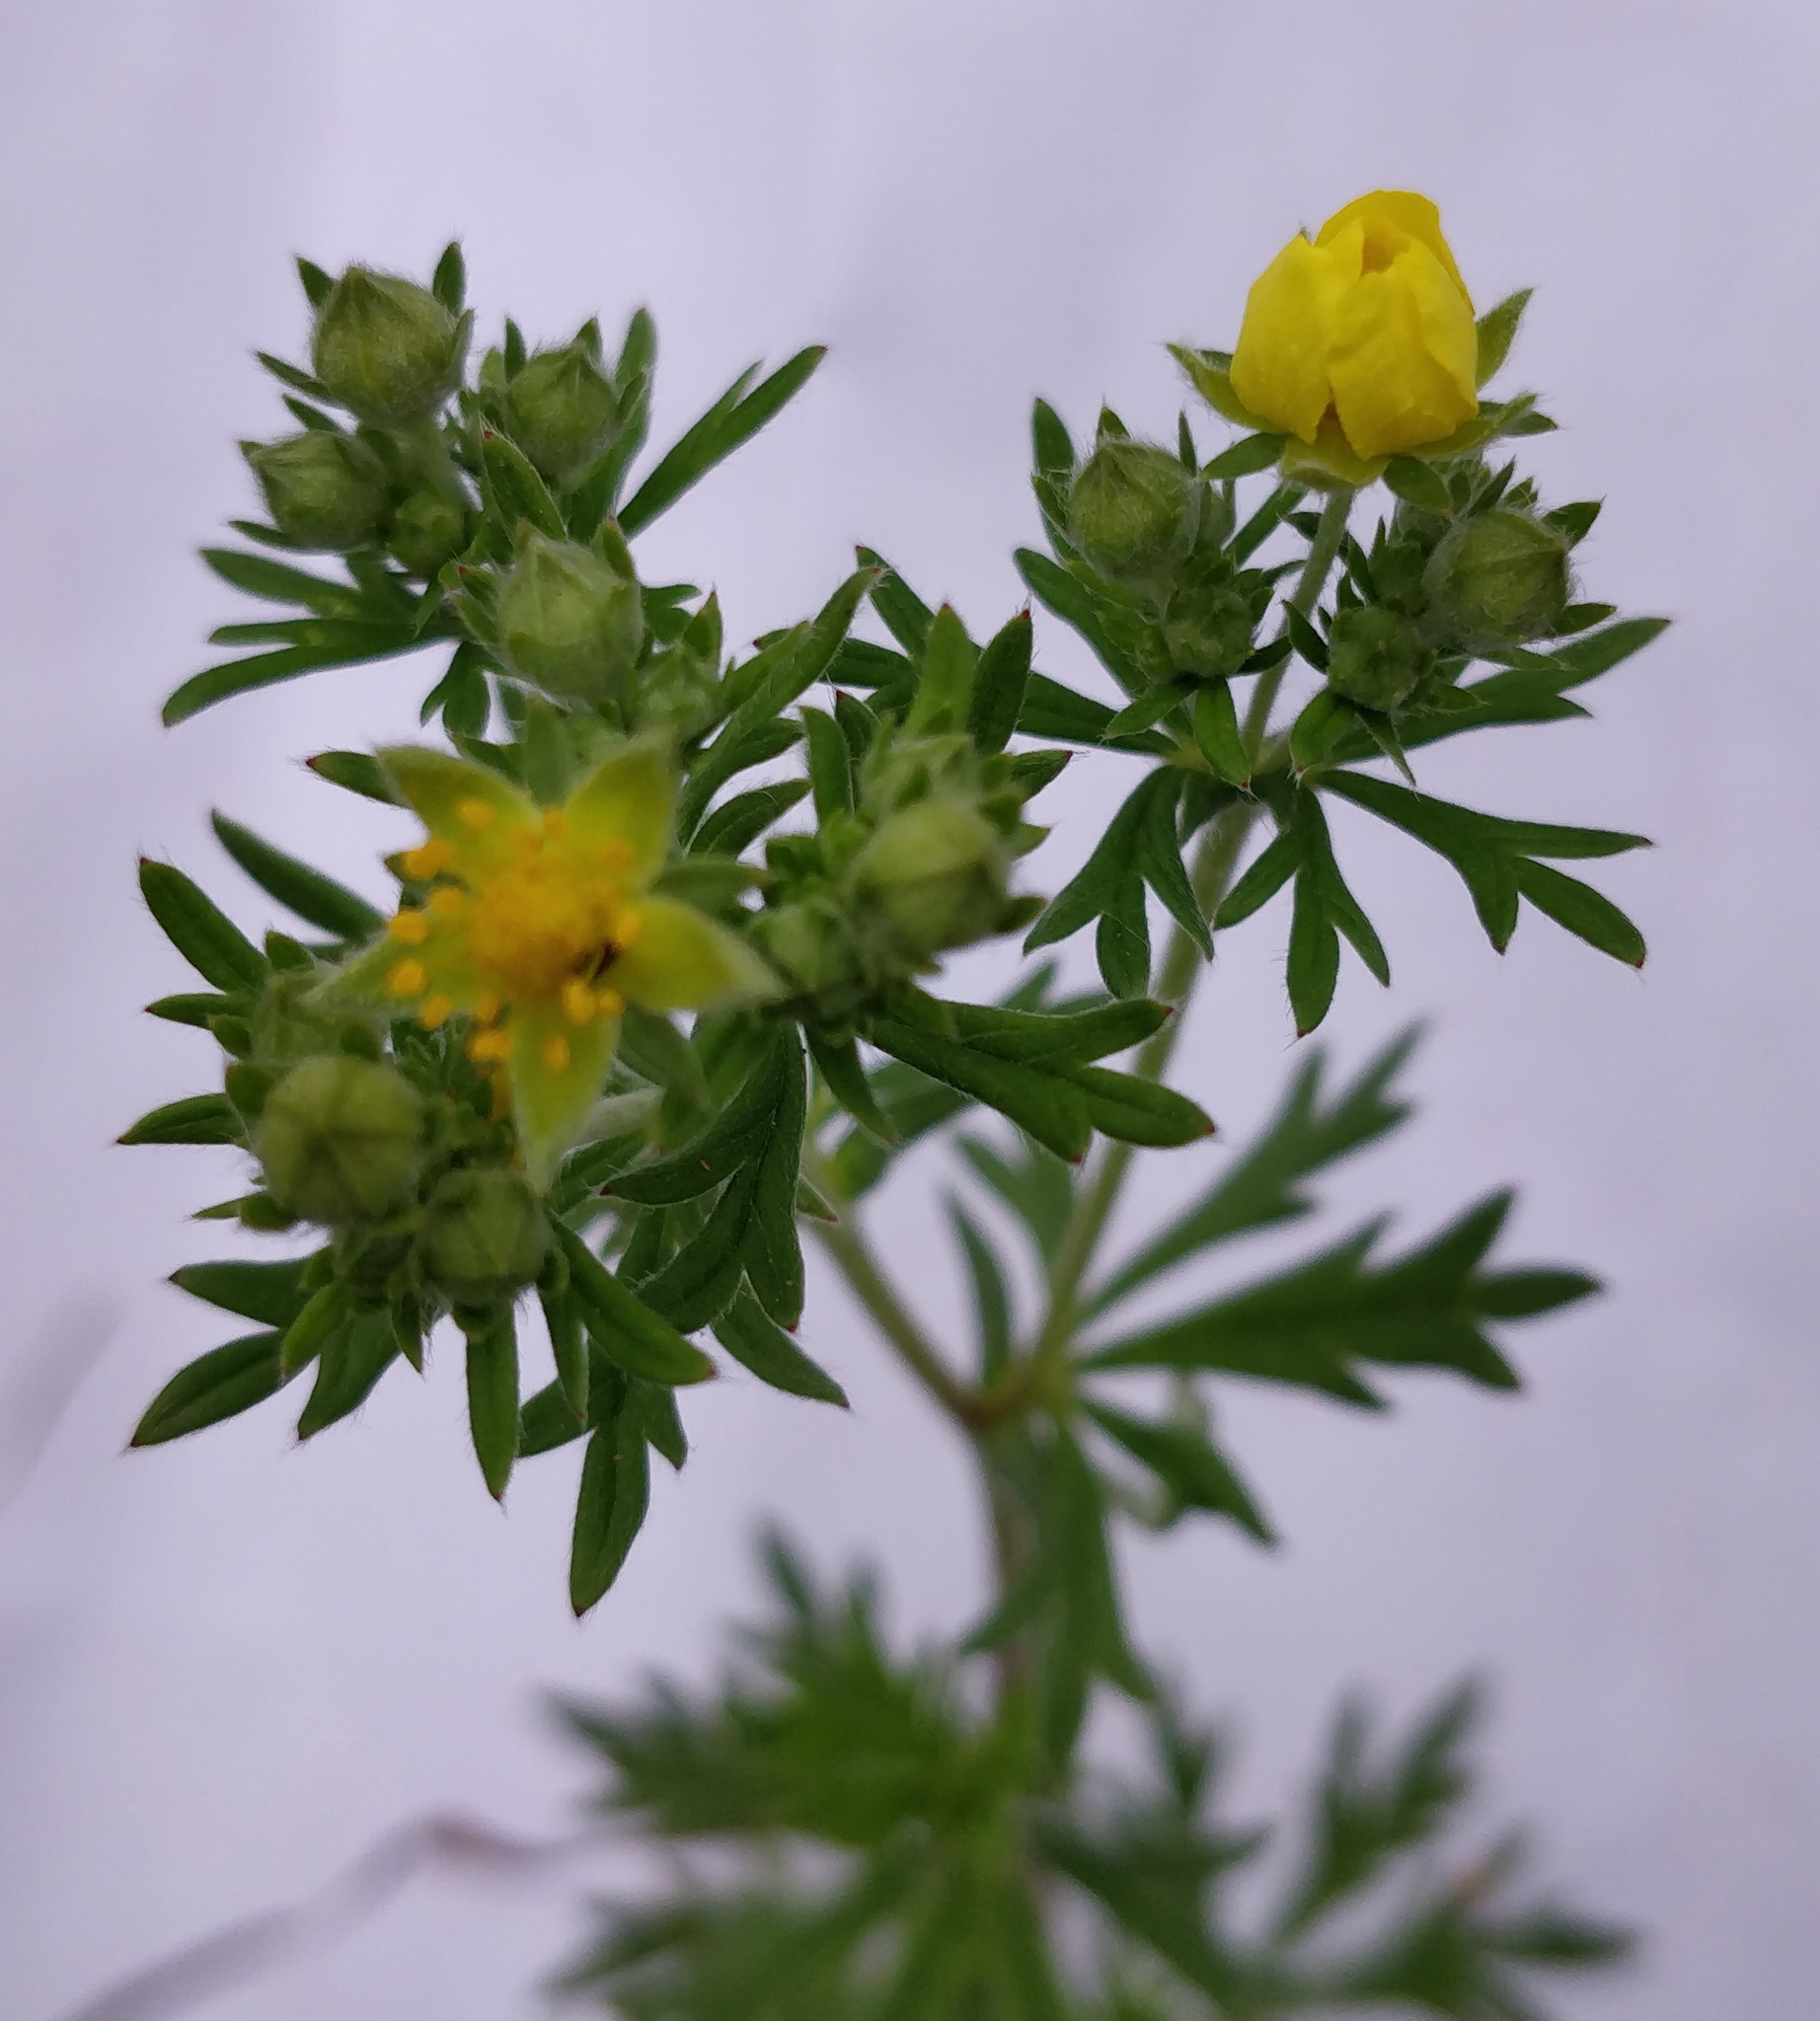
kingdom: Plantae
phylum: Tracheophyta
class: Magnoliopsida
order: Rosales
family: Rosaceae
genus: Potentilla
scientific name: Potentilla argentea
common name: Hoary cinquefoil
